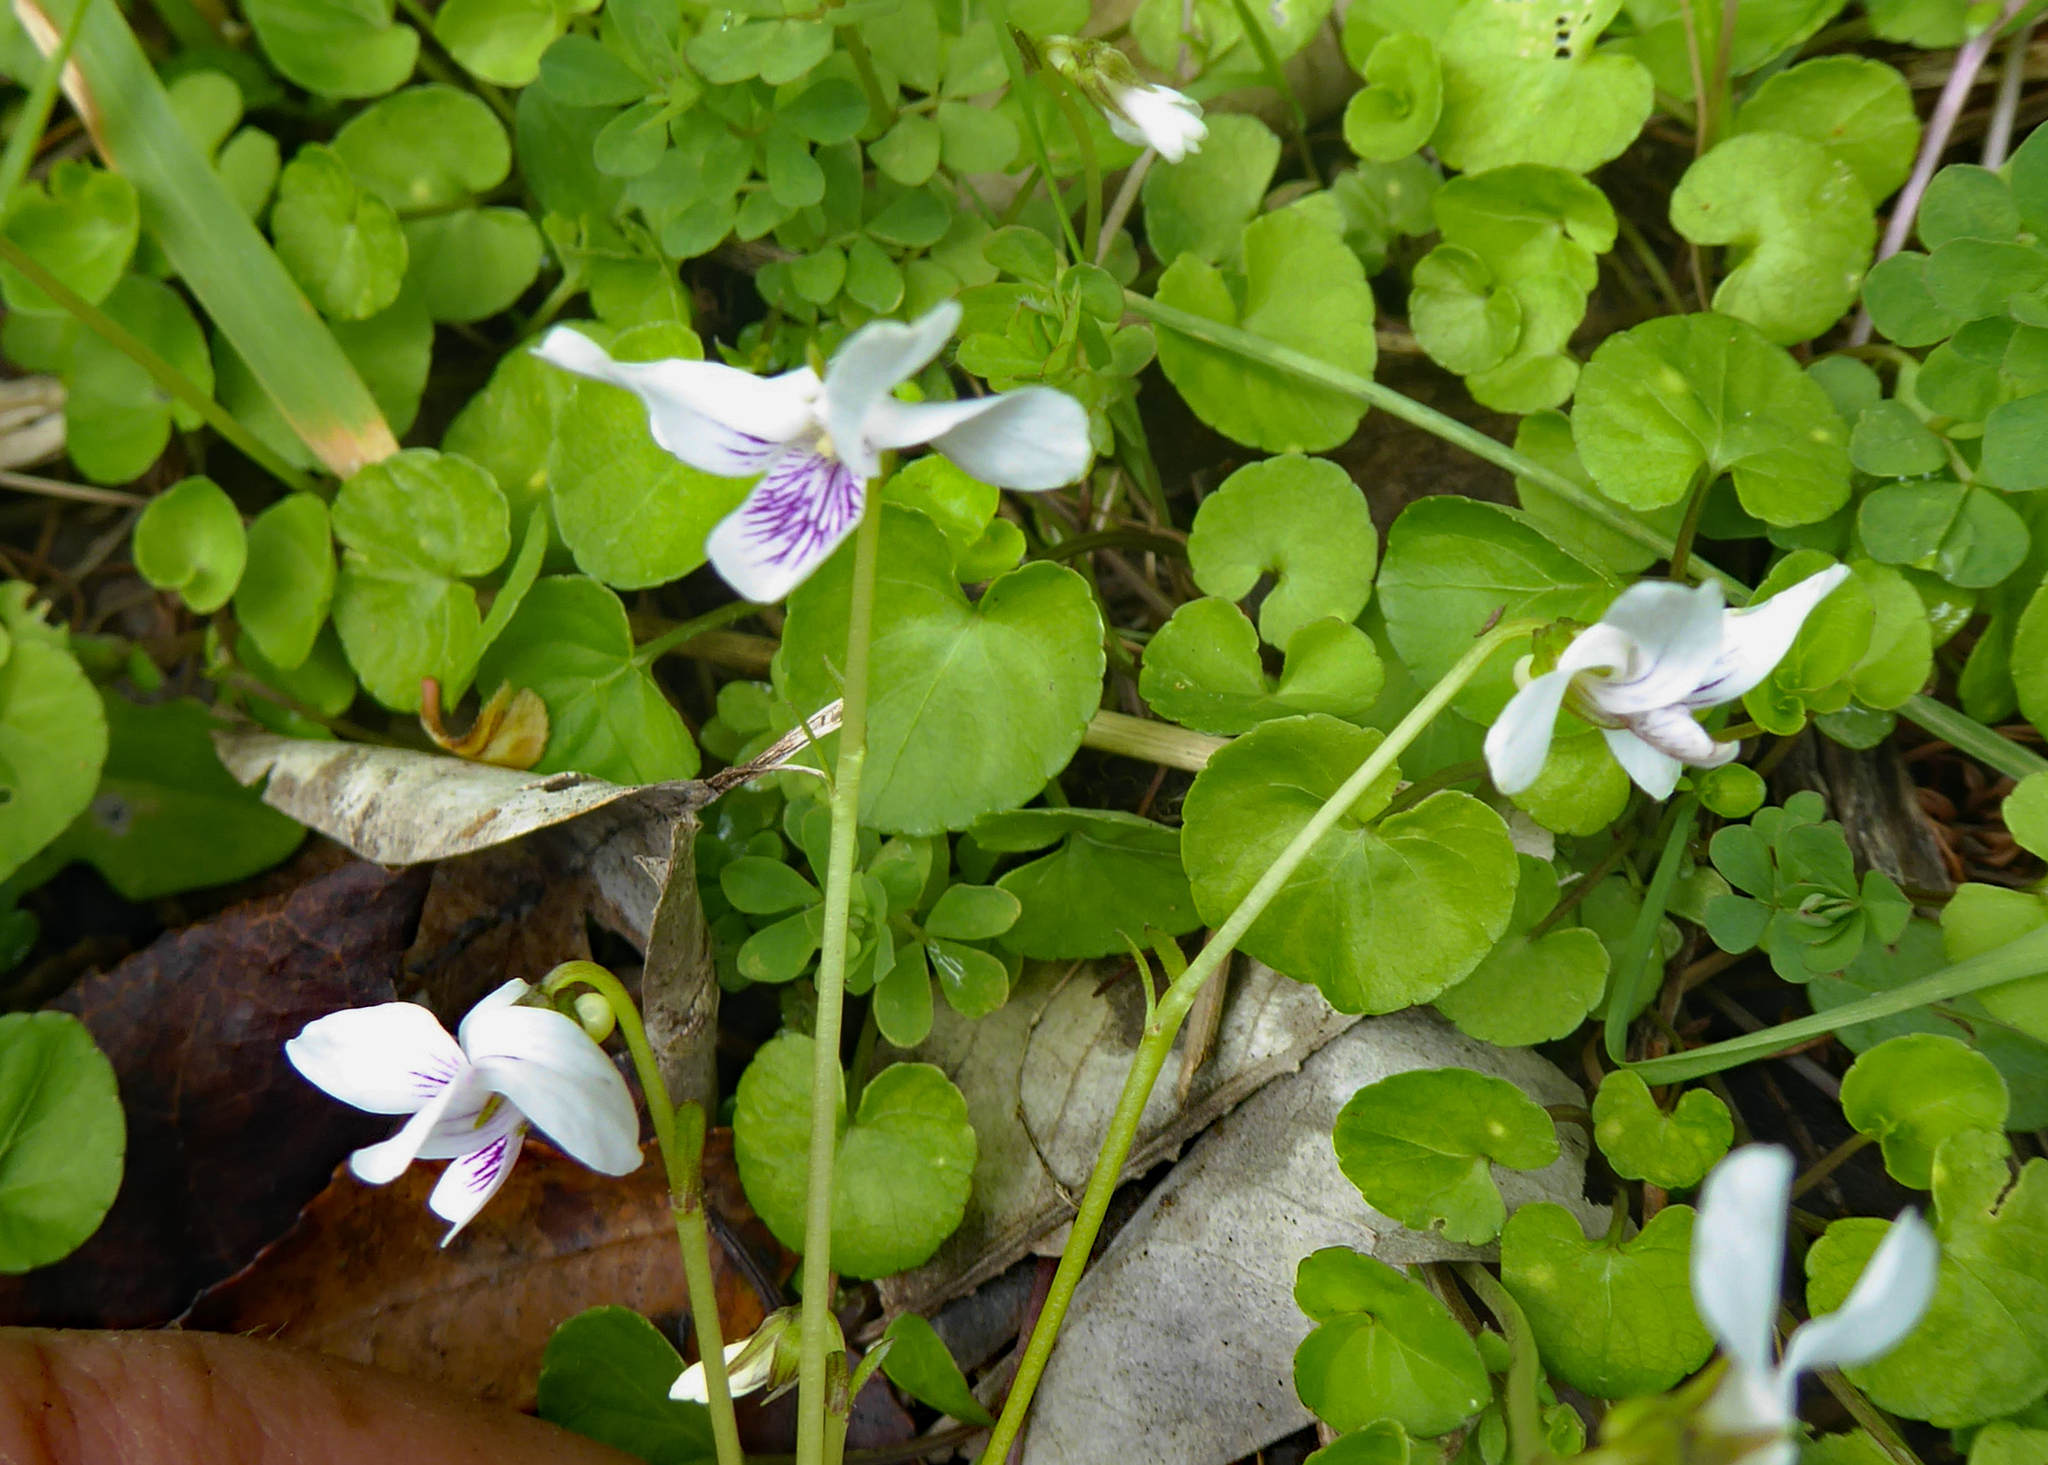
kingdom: Plantae
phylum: Tracheophyta
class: Magnoliopsida
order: Malpighiales
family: Violaceae
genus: Viola
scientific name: Viola lyallii
